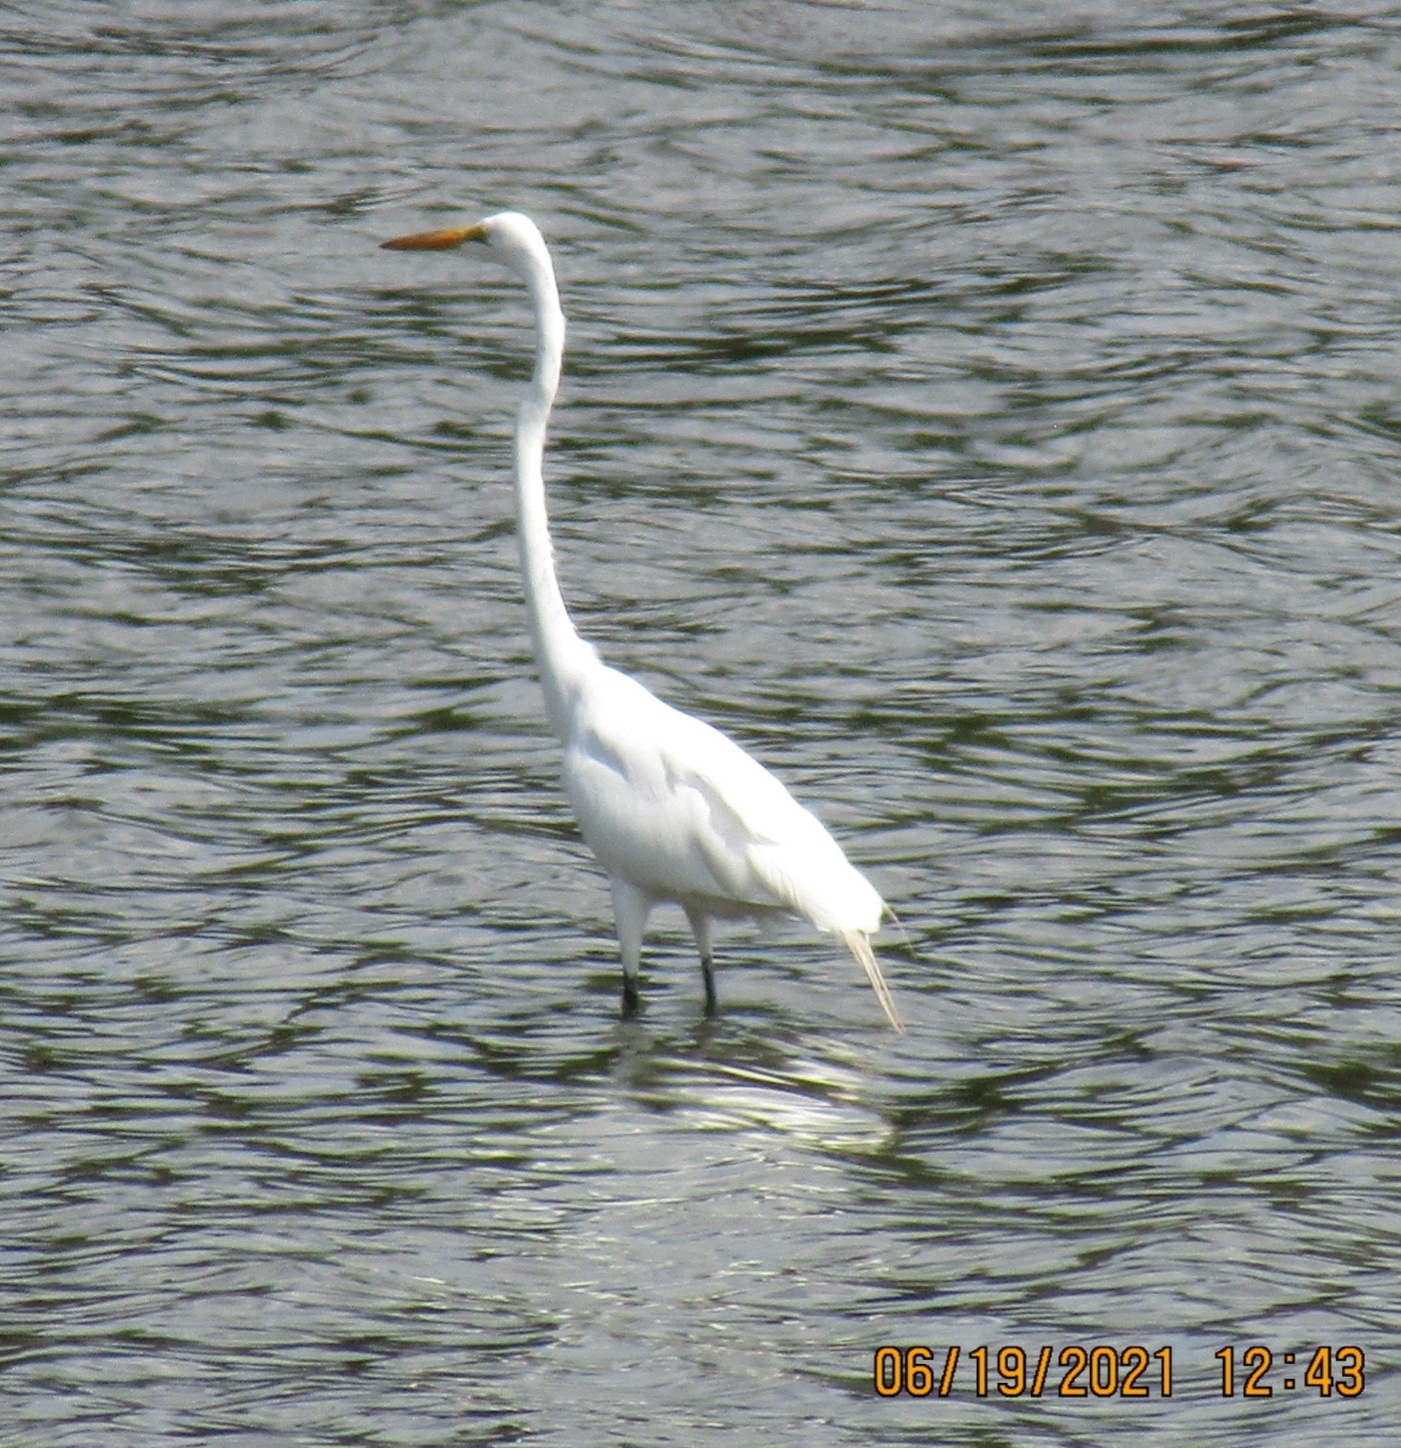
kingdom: Animalia
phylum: Chordata
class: Aves
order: Pelecaniformes
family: Ardeidae
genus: Ardea
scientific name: Ardea alba
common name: Great egret
